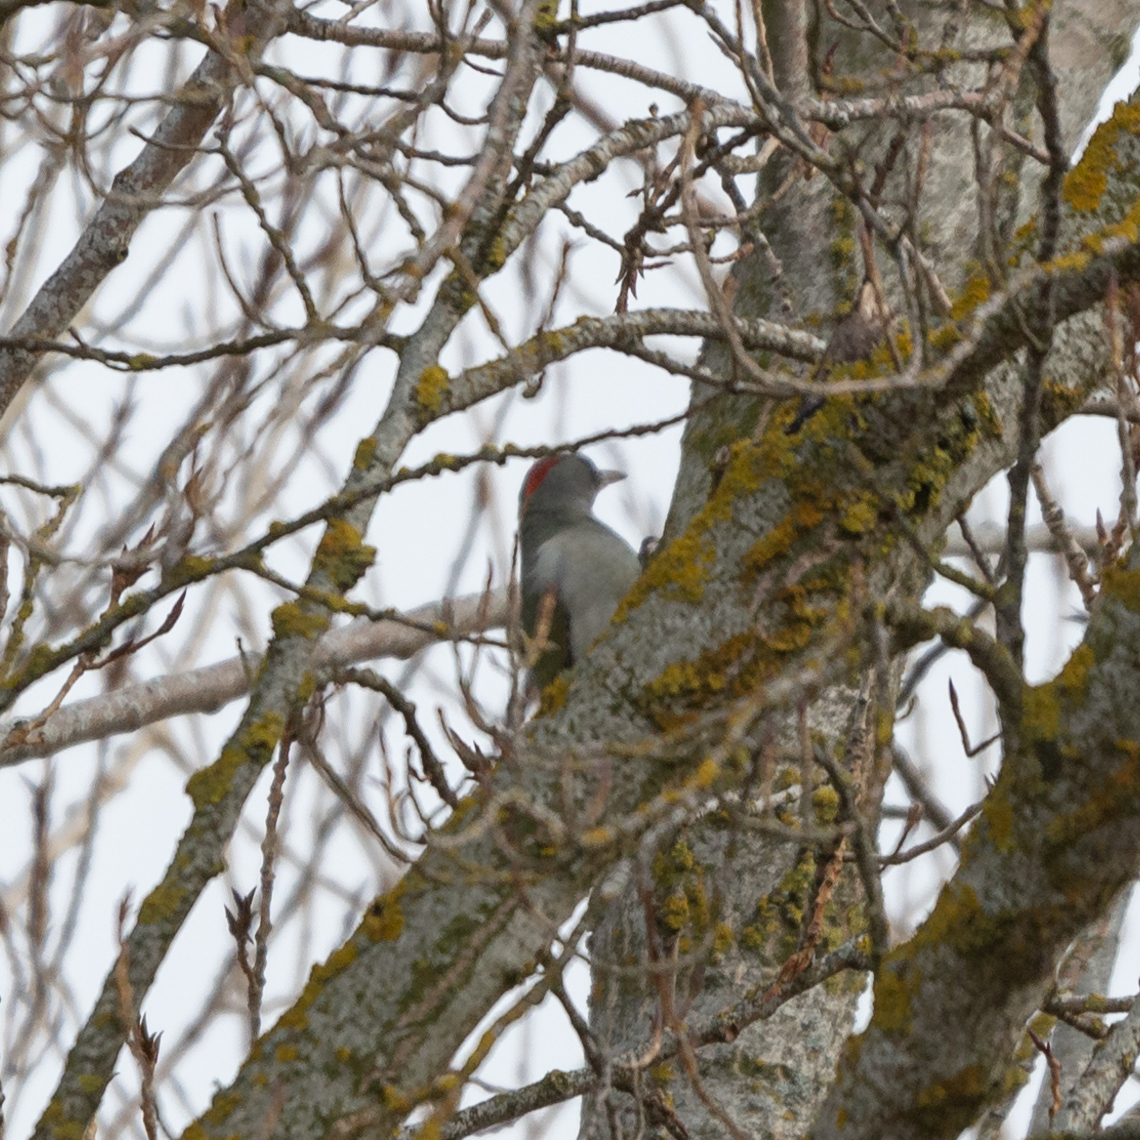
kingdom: Animalia
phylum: Chordata
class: Aves
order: Piciformes
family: Picidae
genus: Picus
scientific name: Picus sharpei
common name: Iberian green woodpecker
